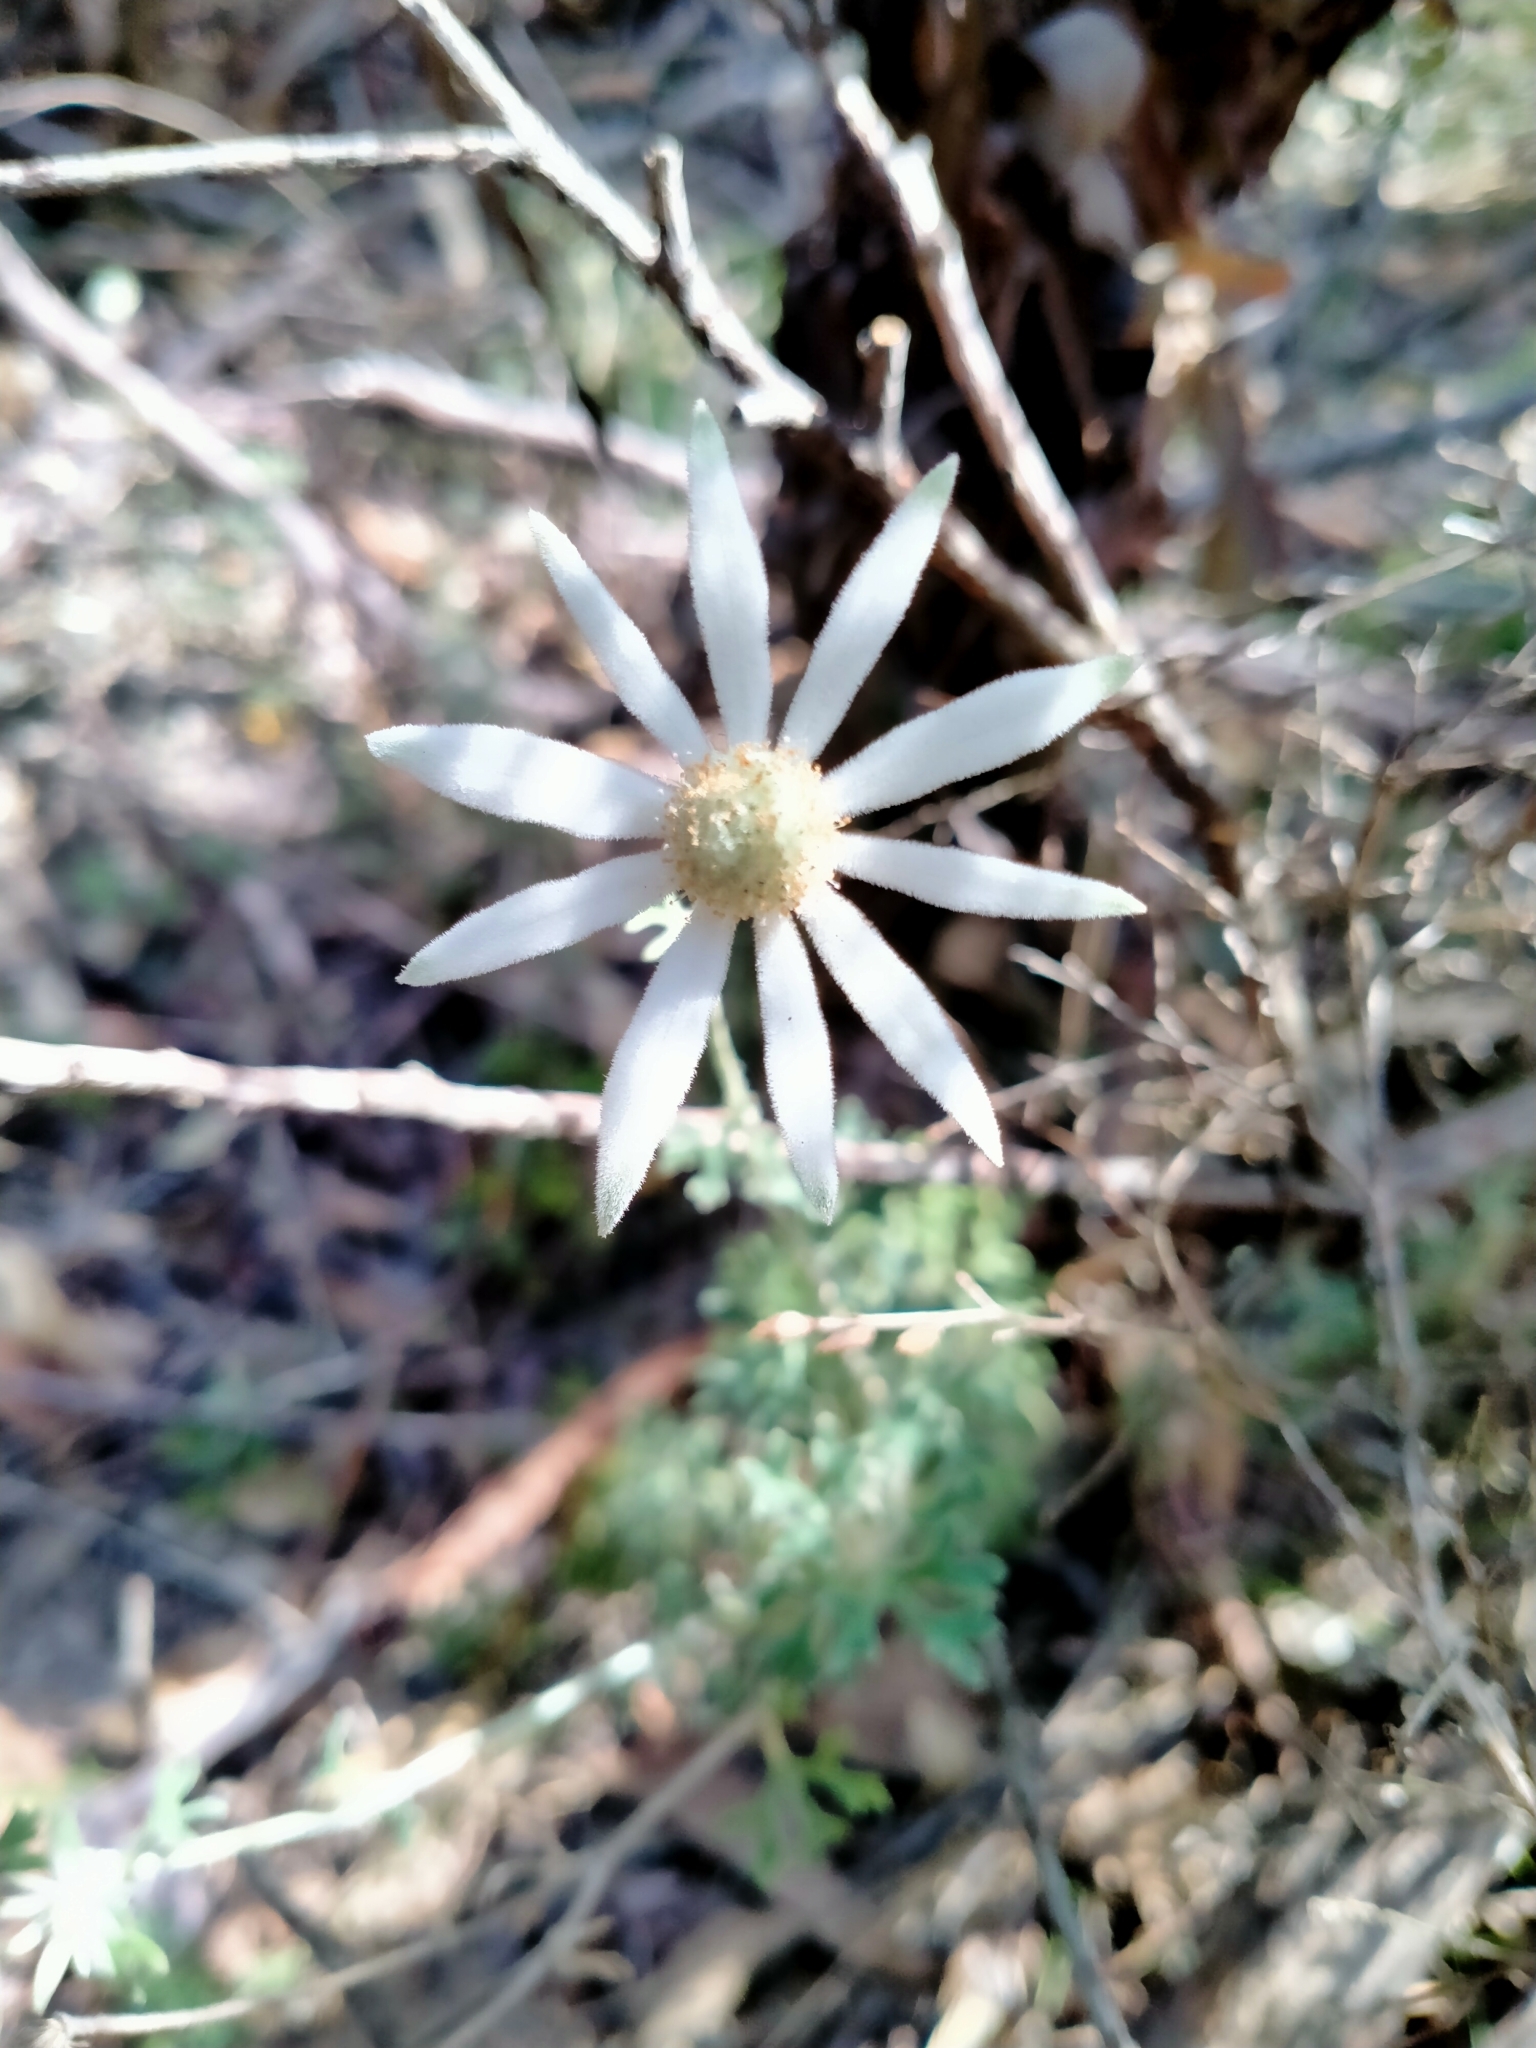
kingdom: Plantae
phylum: Tracheophyta
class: Magnoliopsida
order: Apiales
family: Apiaceae
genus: Actinotus
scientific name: Actinotus helianthi
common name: Flannel-flower
